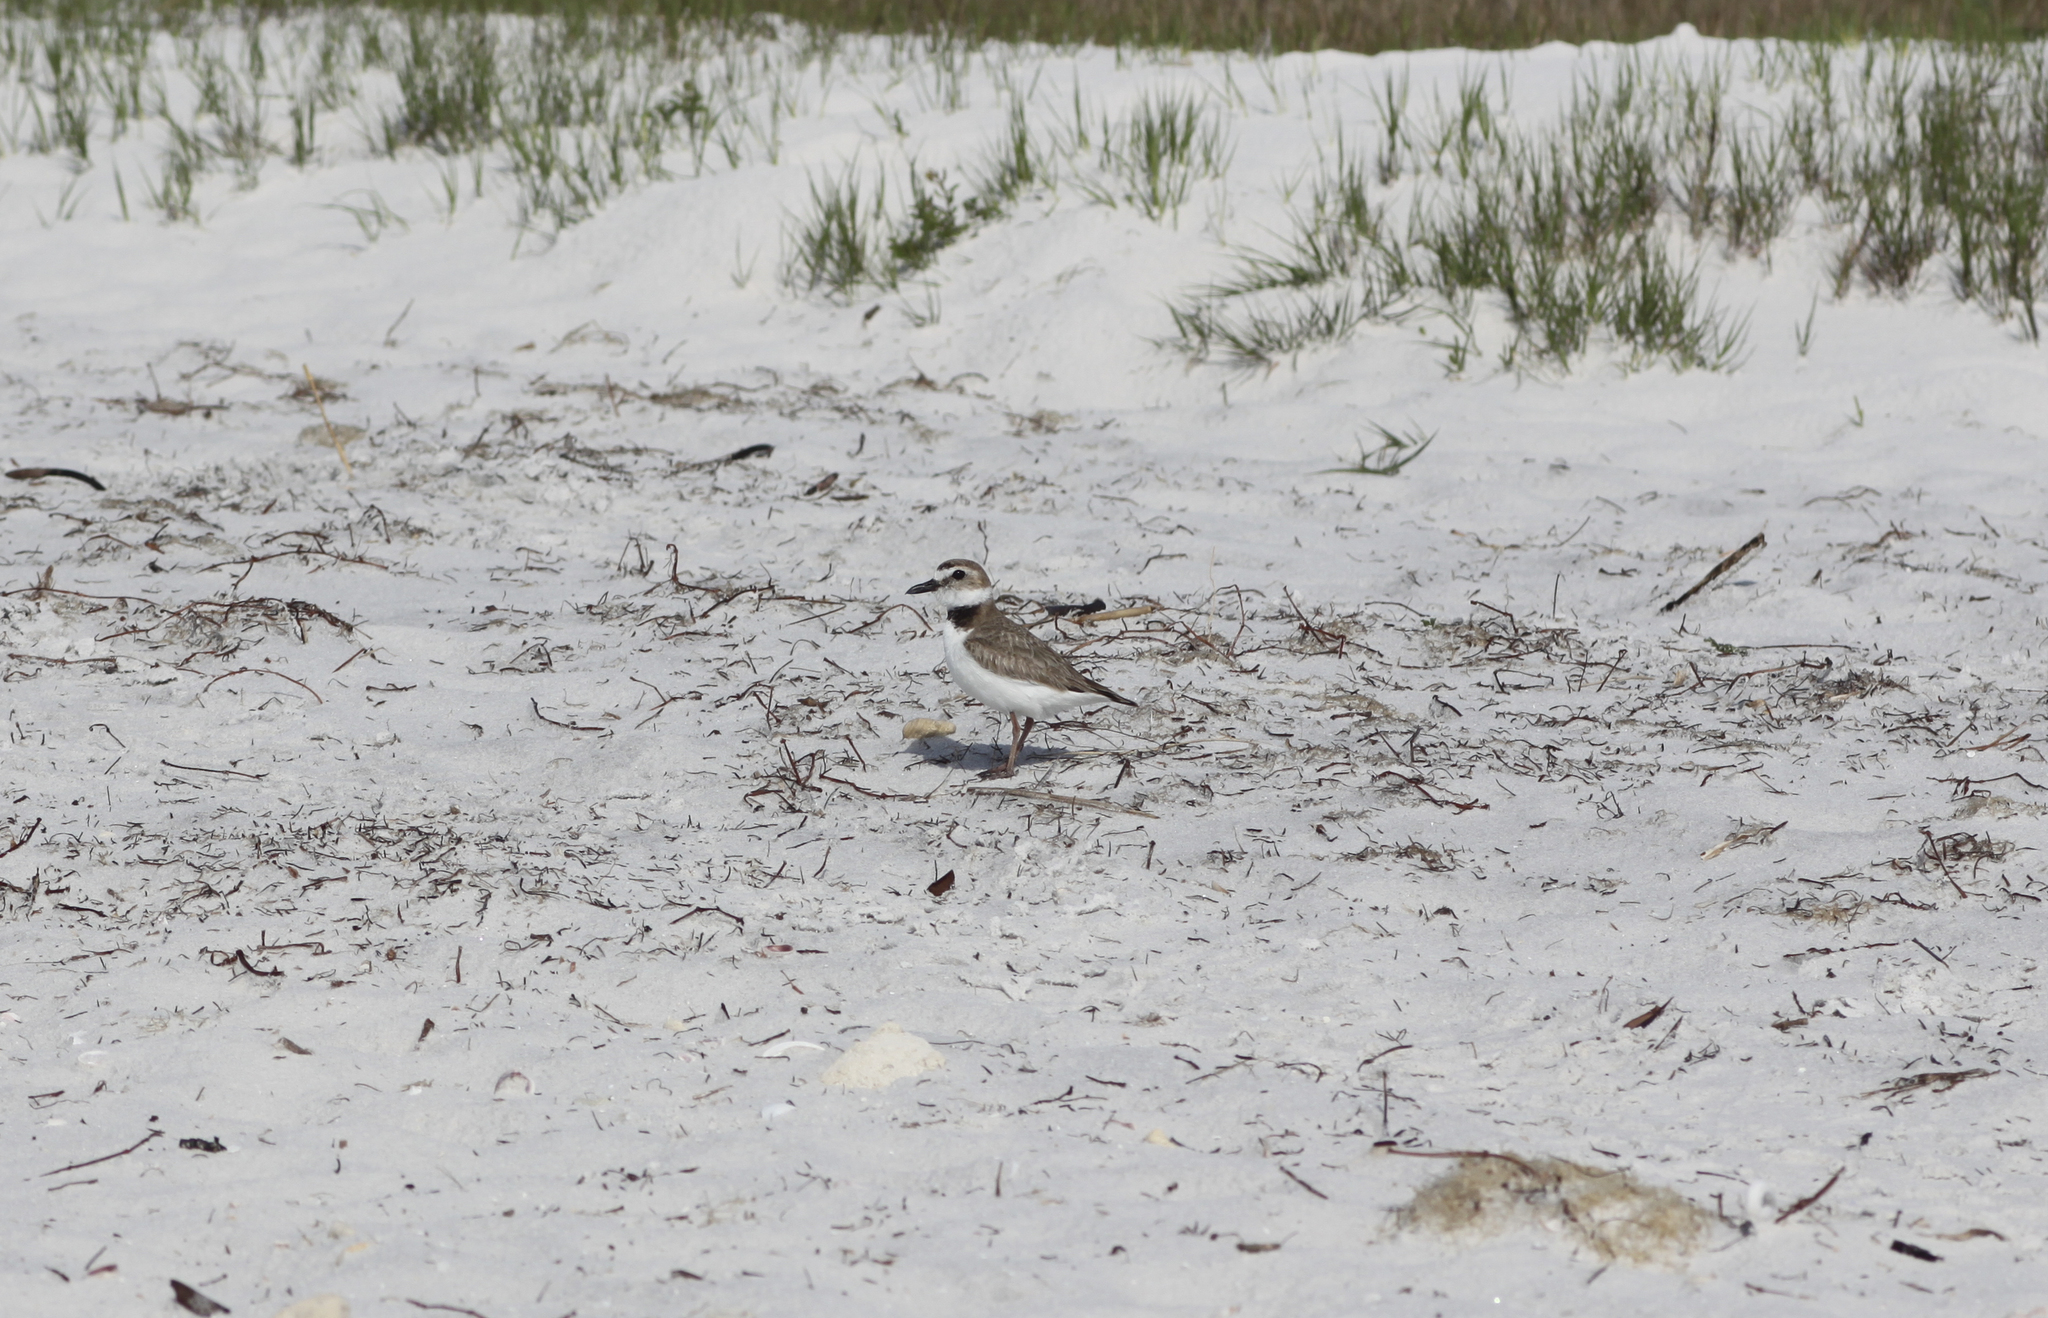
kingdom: Animalia
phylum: Chordata
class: Aves
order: Charadriiformes
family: Charadriidae
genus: Anarhynchus
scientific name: Anarhynchus
